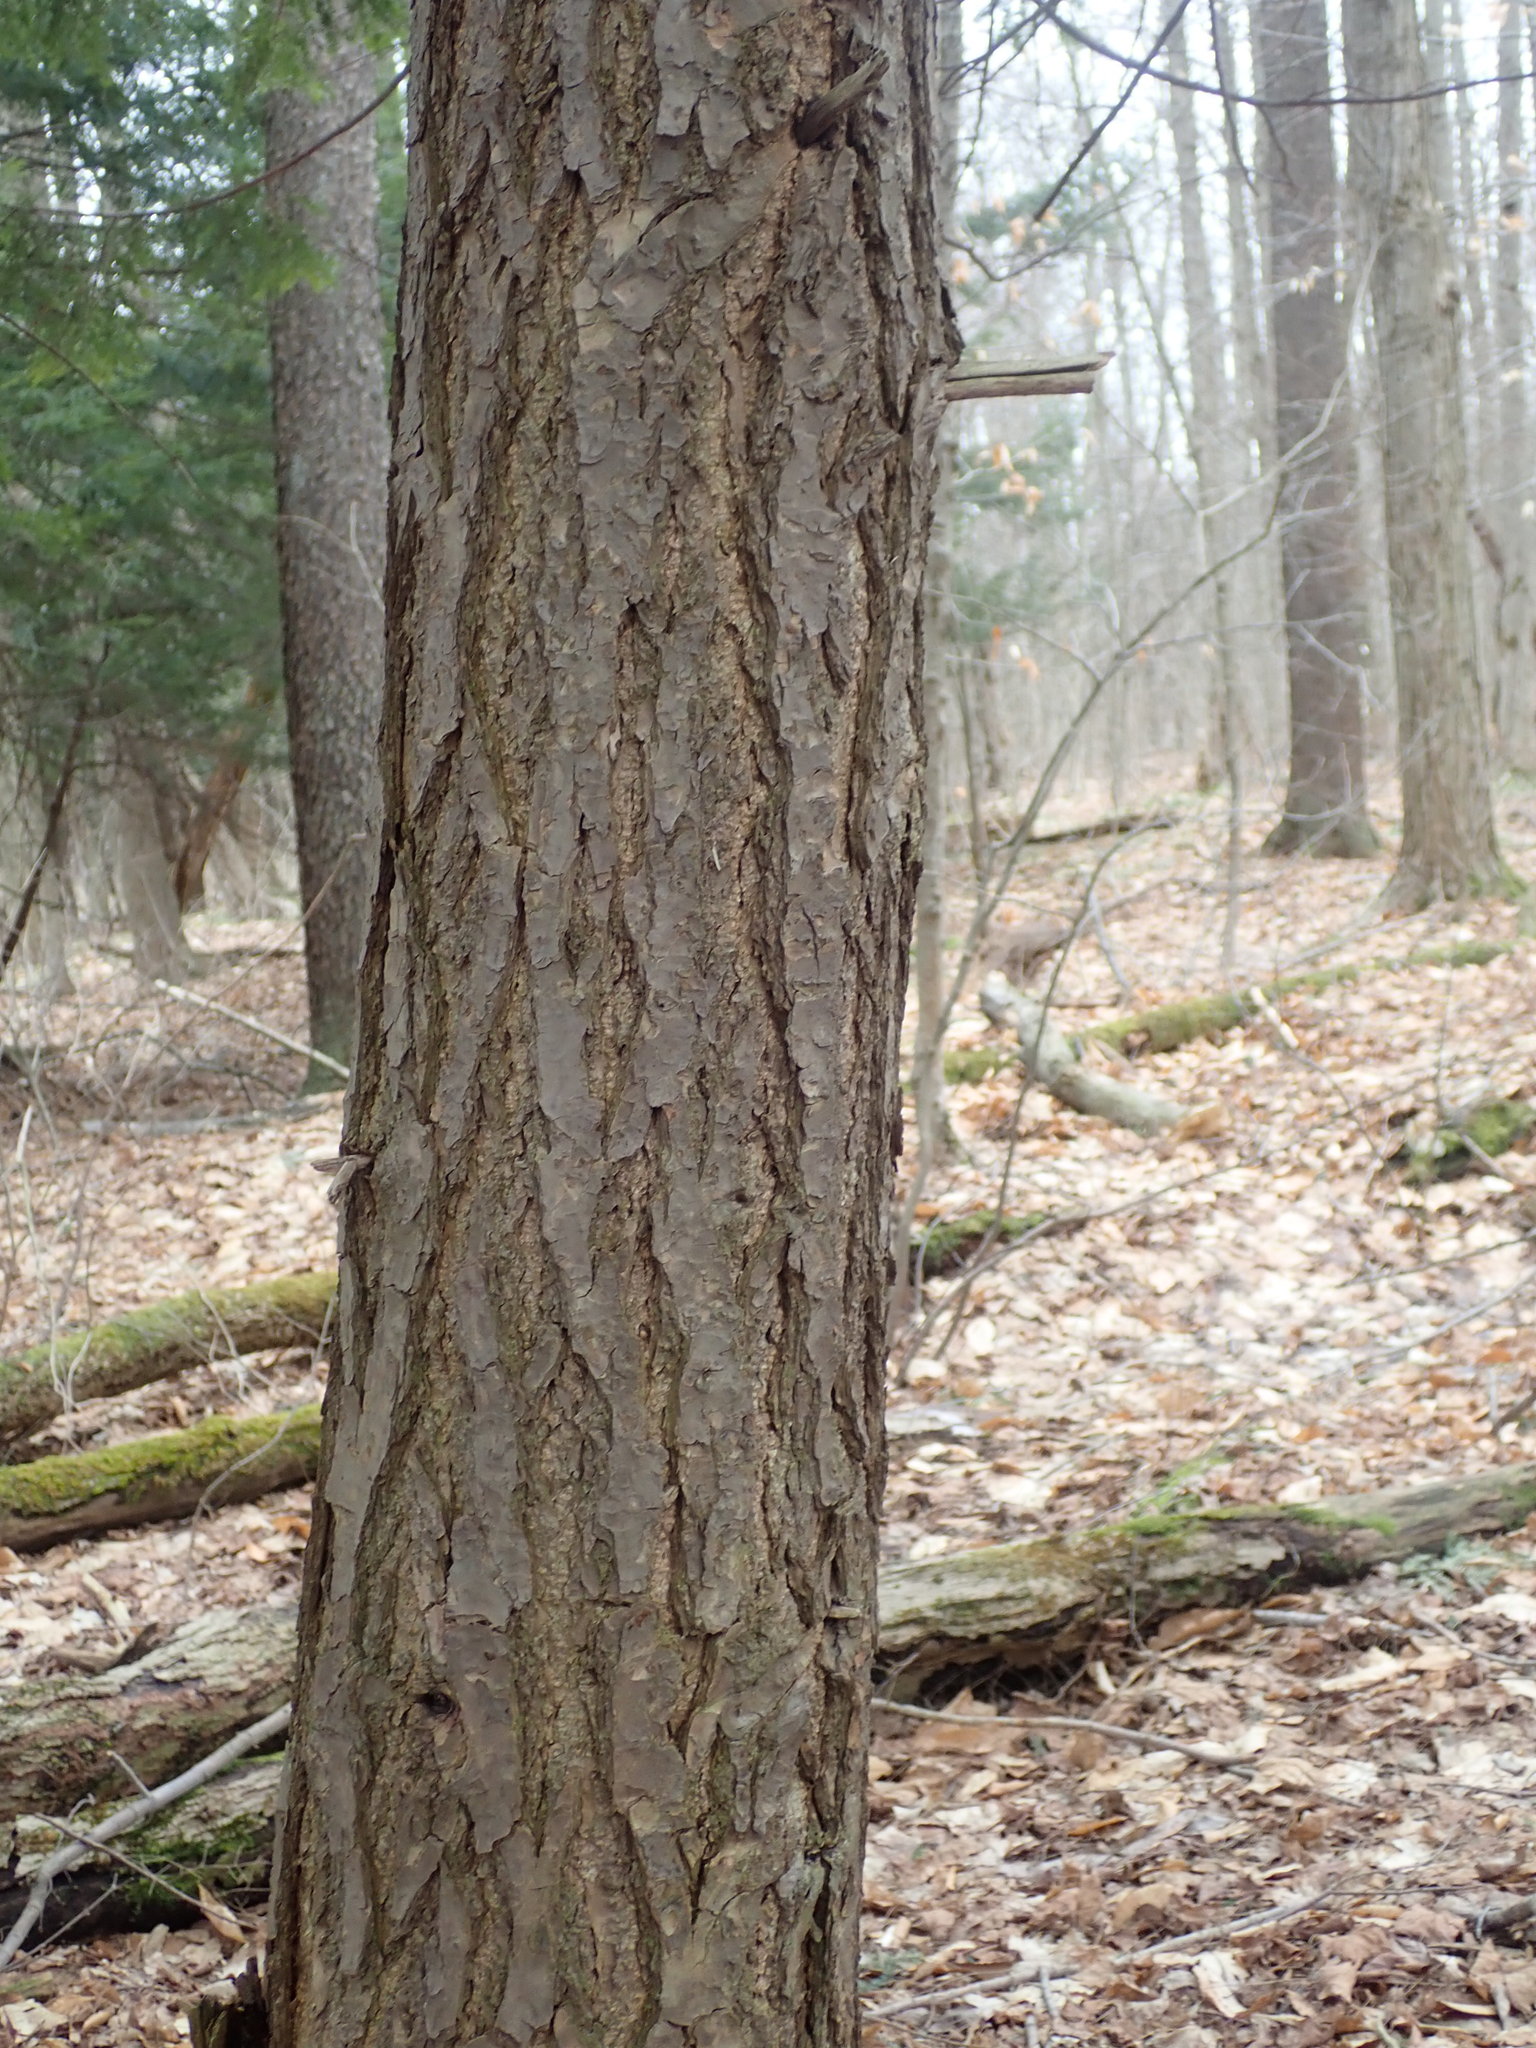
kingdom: Plantae
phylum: Tracheophyta
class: Pinopsida
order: Pinales
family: Pinaceae
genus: Tsuga
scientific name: Tsuga canadensis
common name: Eastern hemlock
